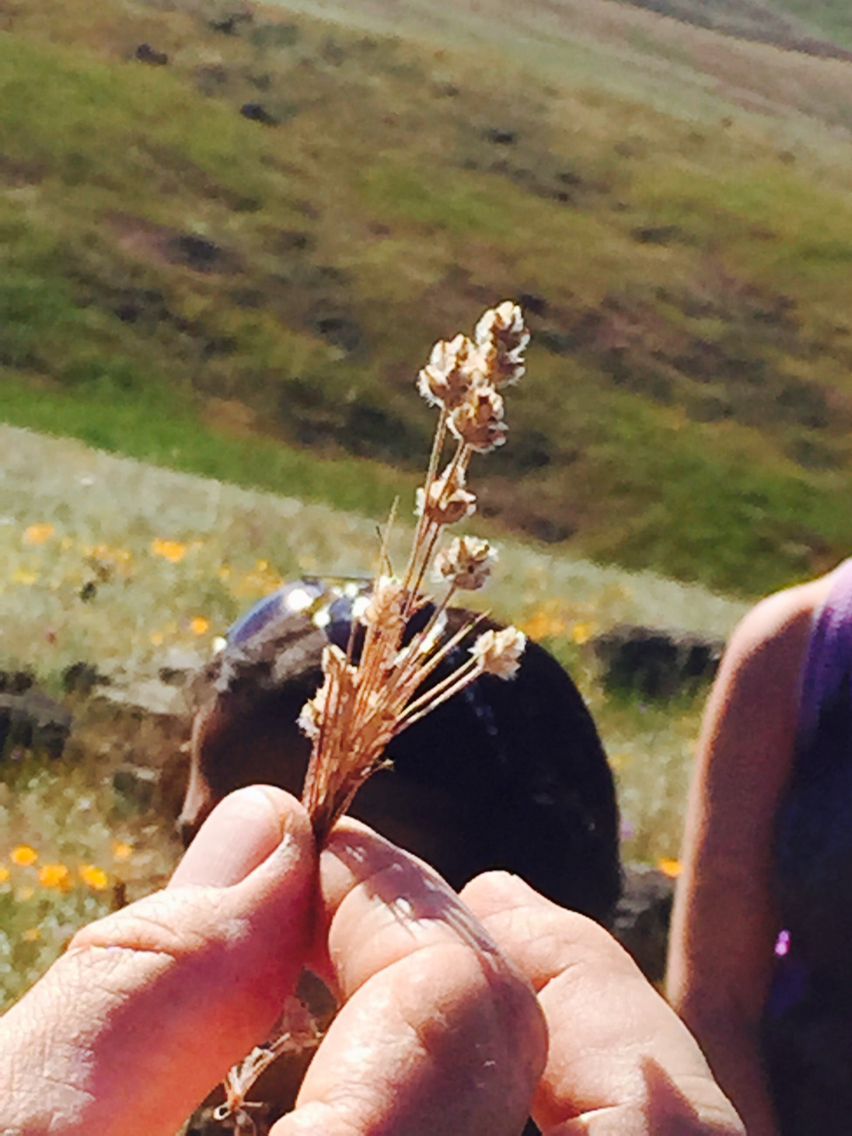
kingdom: Plantae
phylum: Tracheophyta
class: Magnoliopsida
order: Lamiales
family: Plantaginaceae
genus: Plantago
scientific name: Plantago erecta
